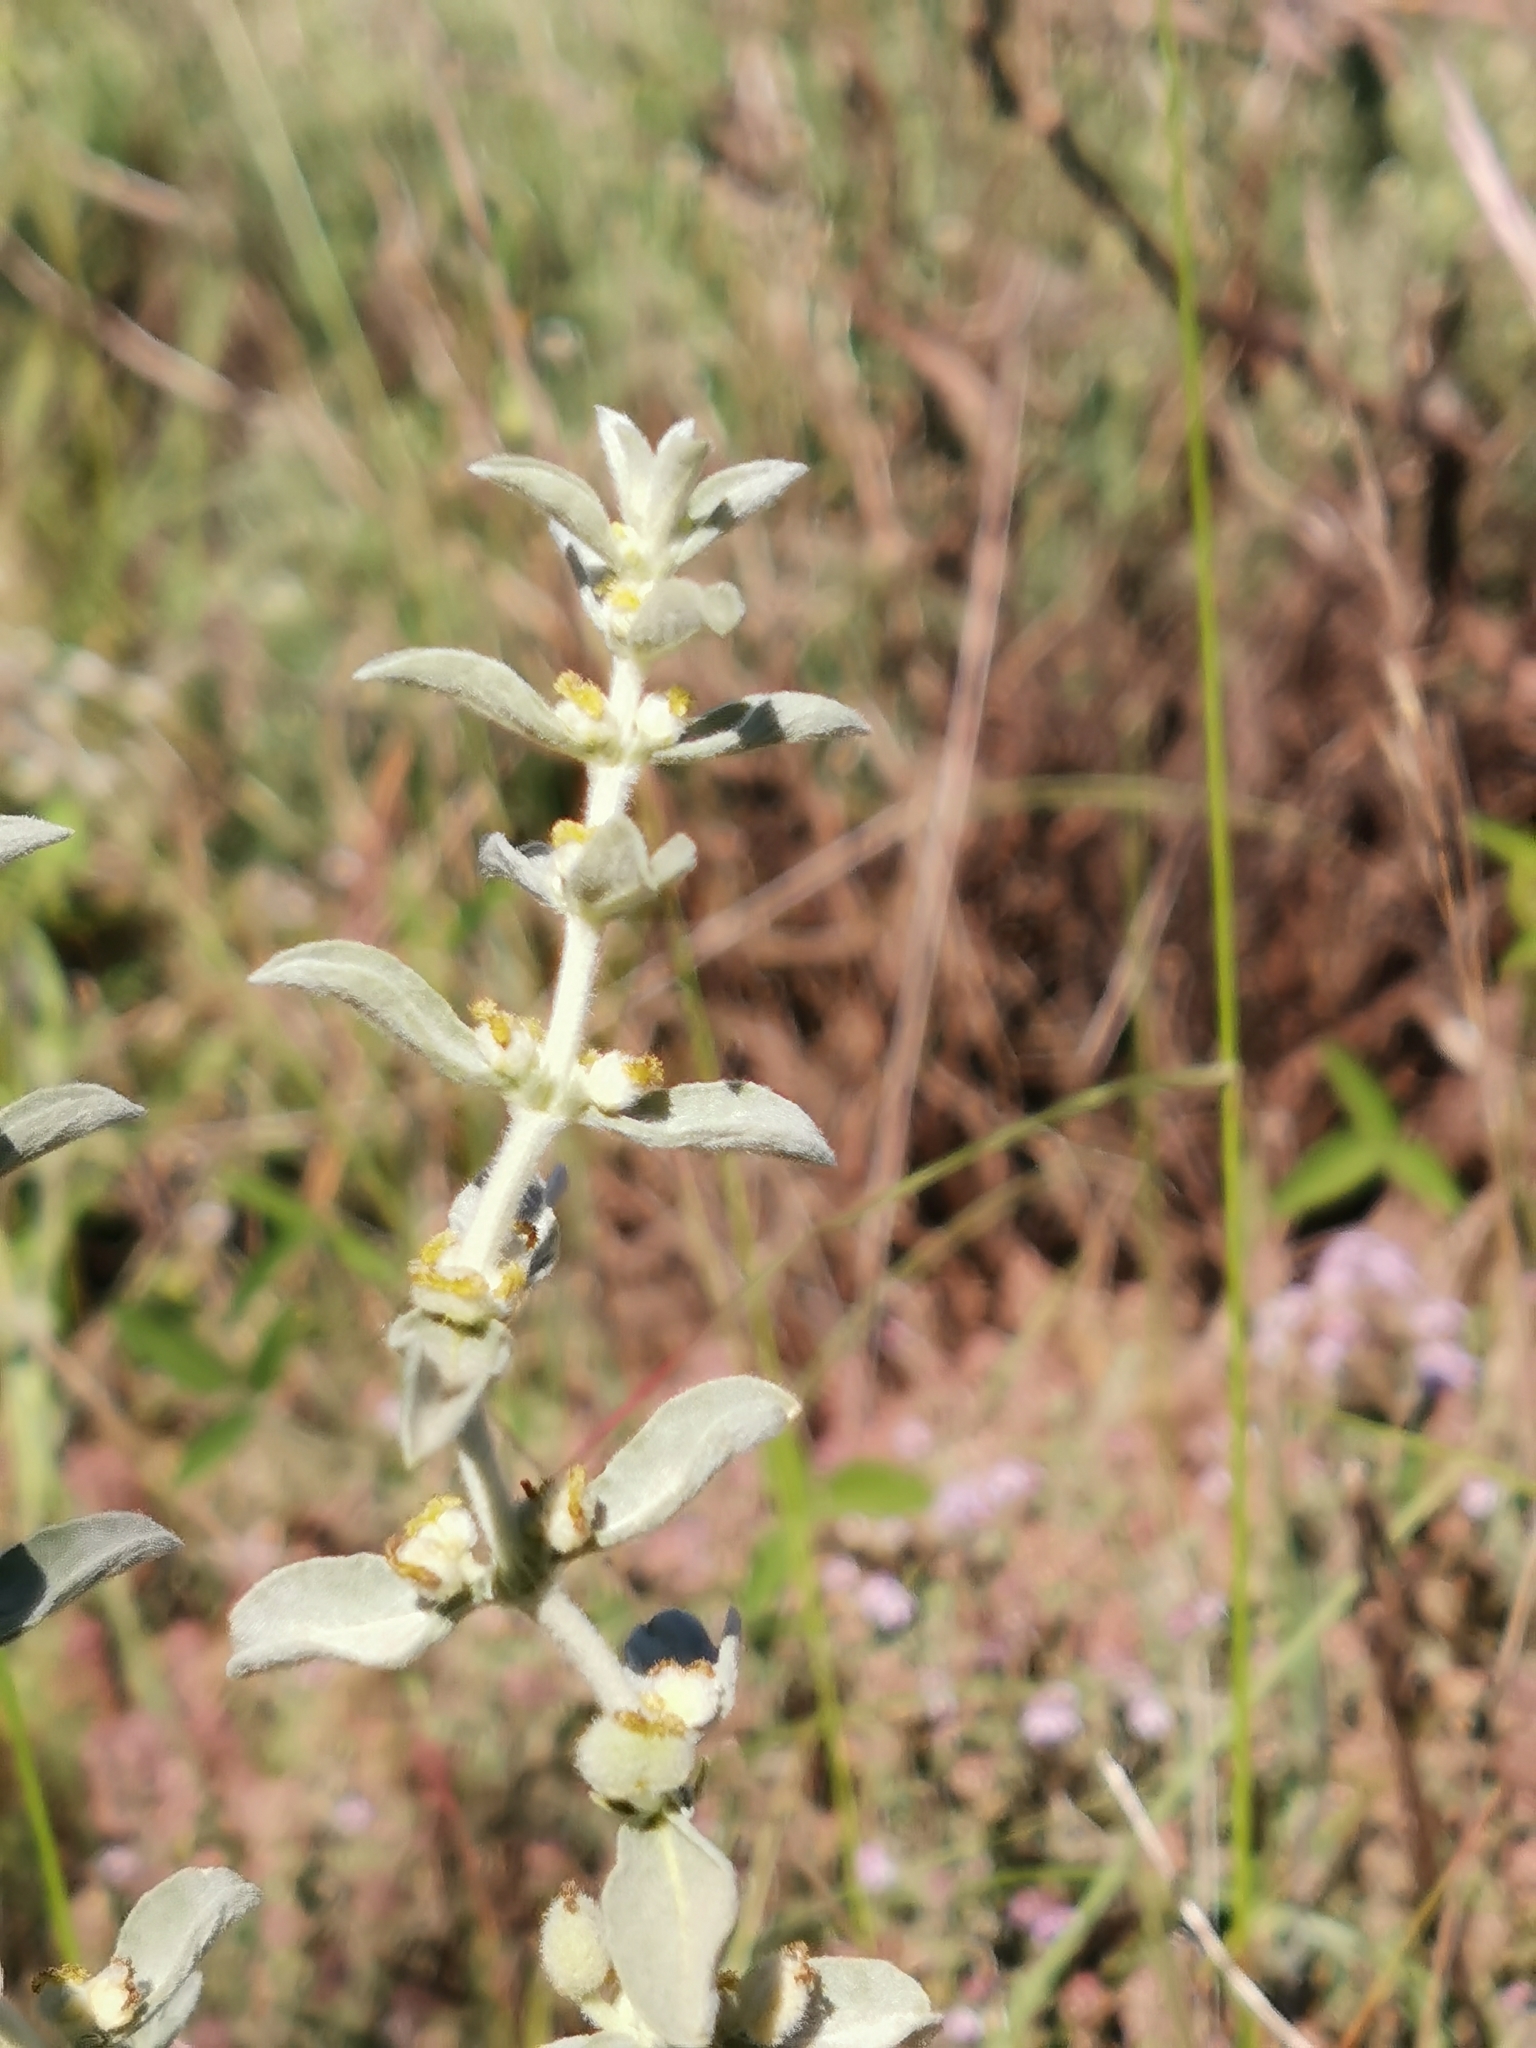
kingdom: Plantae
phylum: Tracheophyta
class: Magnoliopsida
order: Malpighiales
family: Euphorbiaceae
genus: Mercurialis
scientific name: Mercurialis tomentosa
